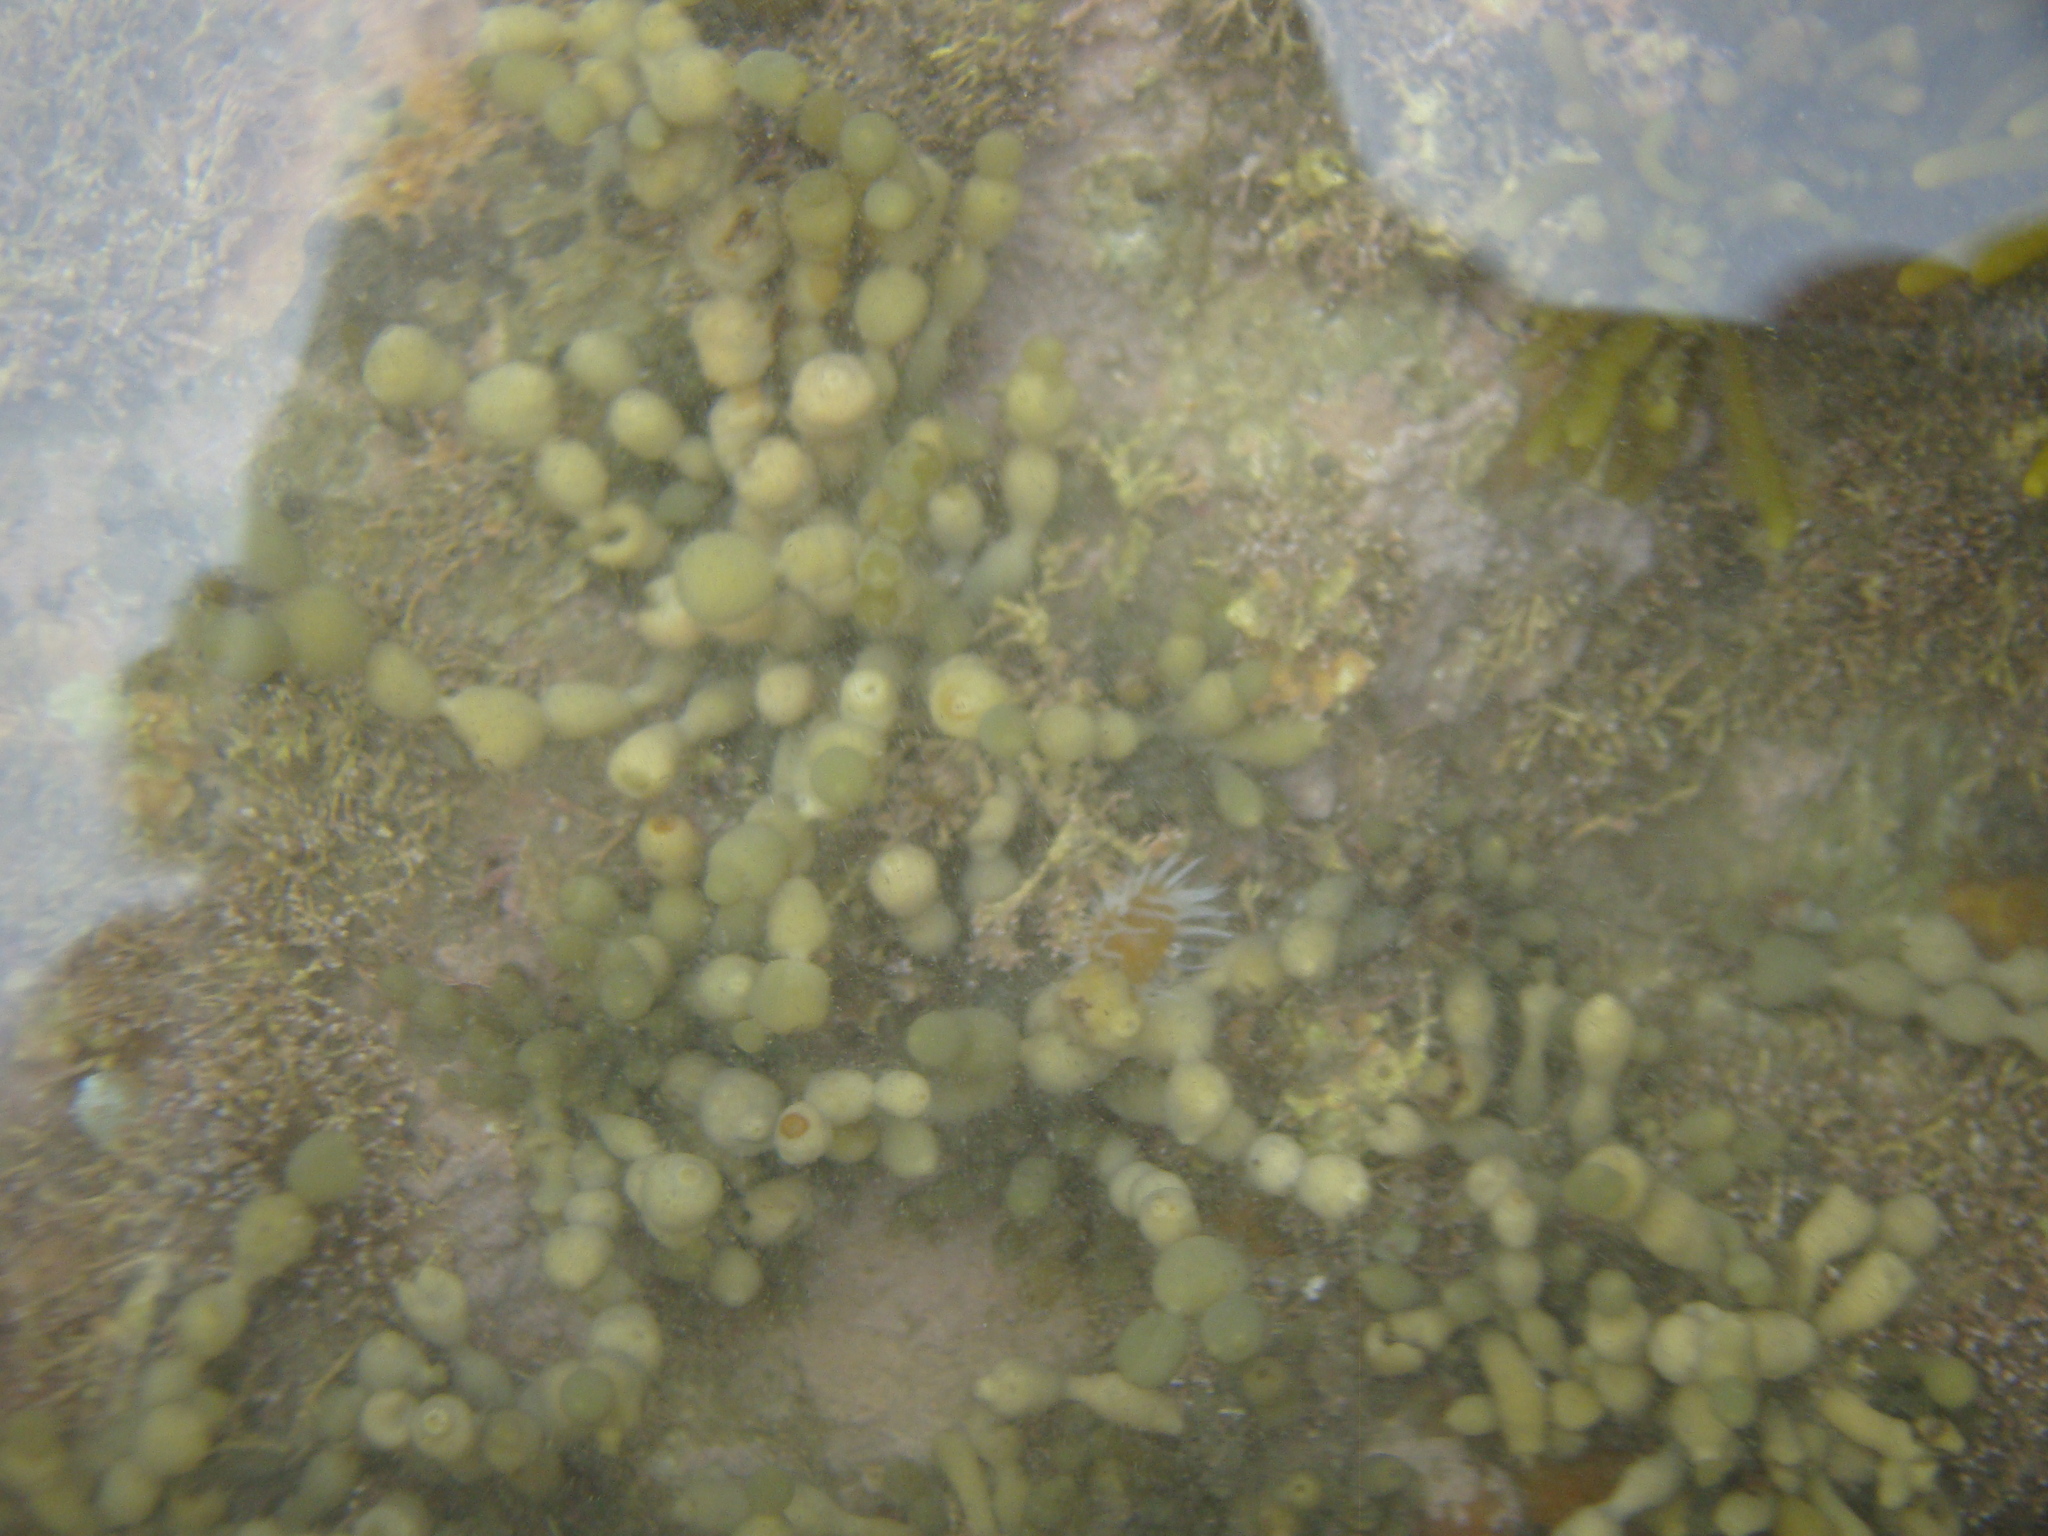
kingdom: Chromista
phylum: Ochrophyta
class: Phaeophyceae
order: Fucales
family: Hormosiraceae
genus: Hormosira
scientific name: Hormosira banksii
